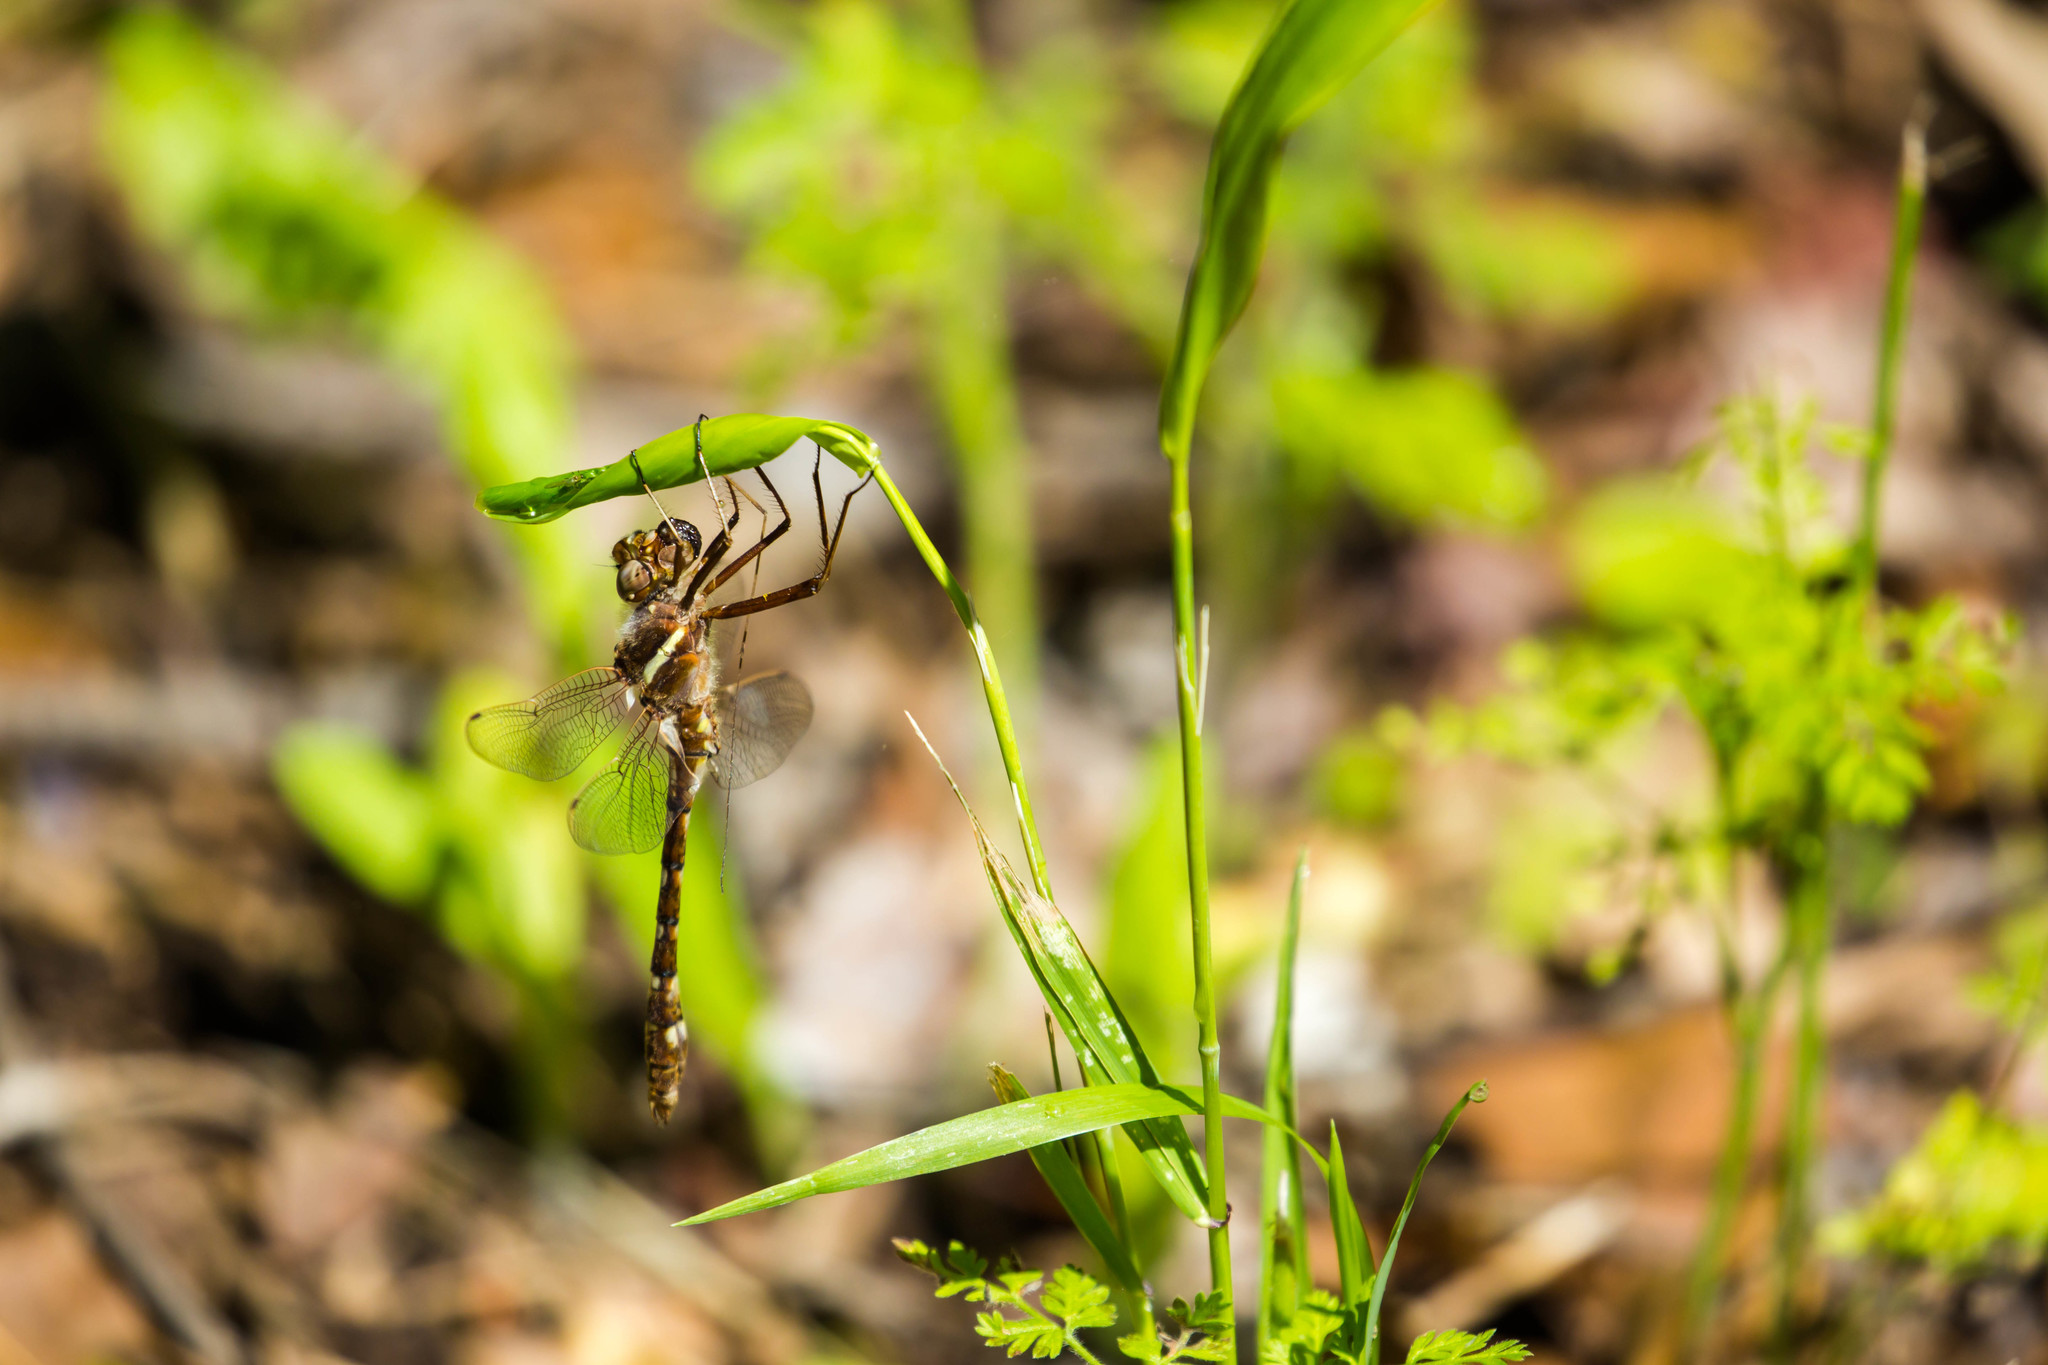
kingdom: Animalia
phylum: Arthropoda
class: Insecta
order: Odonata
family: Macromiidae
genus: Didymops
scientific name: Didymops transversa
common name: Stream cruiser
